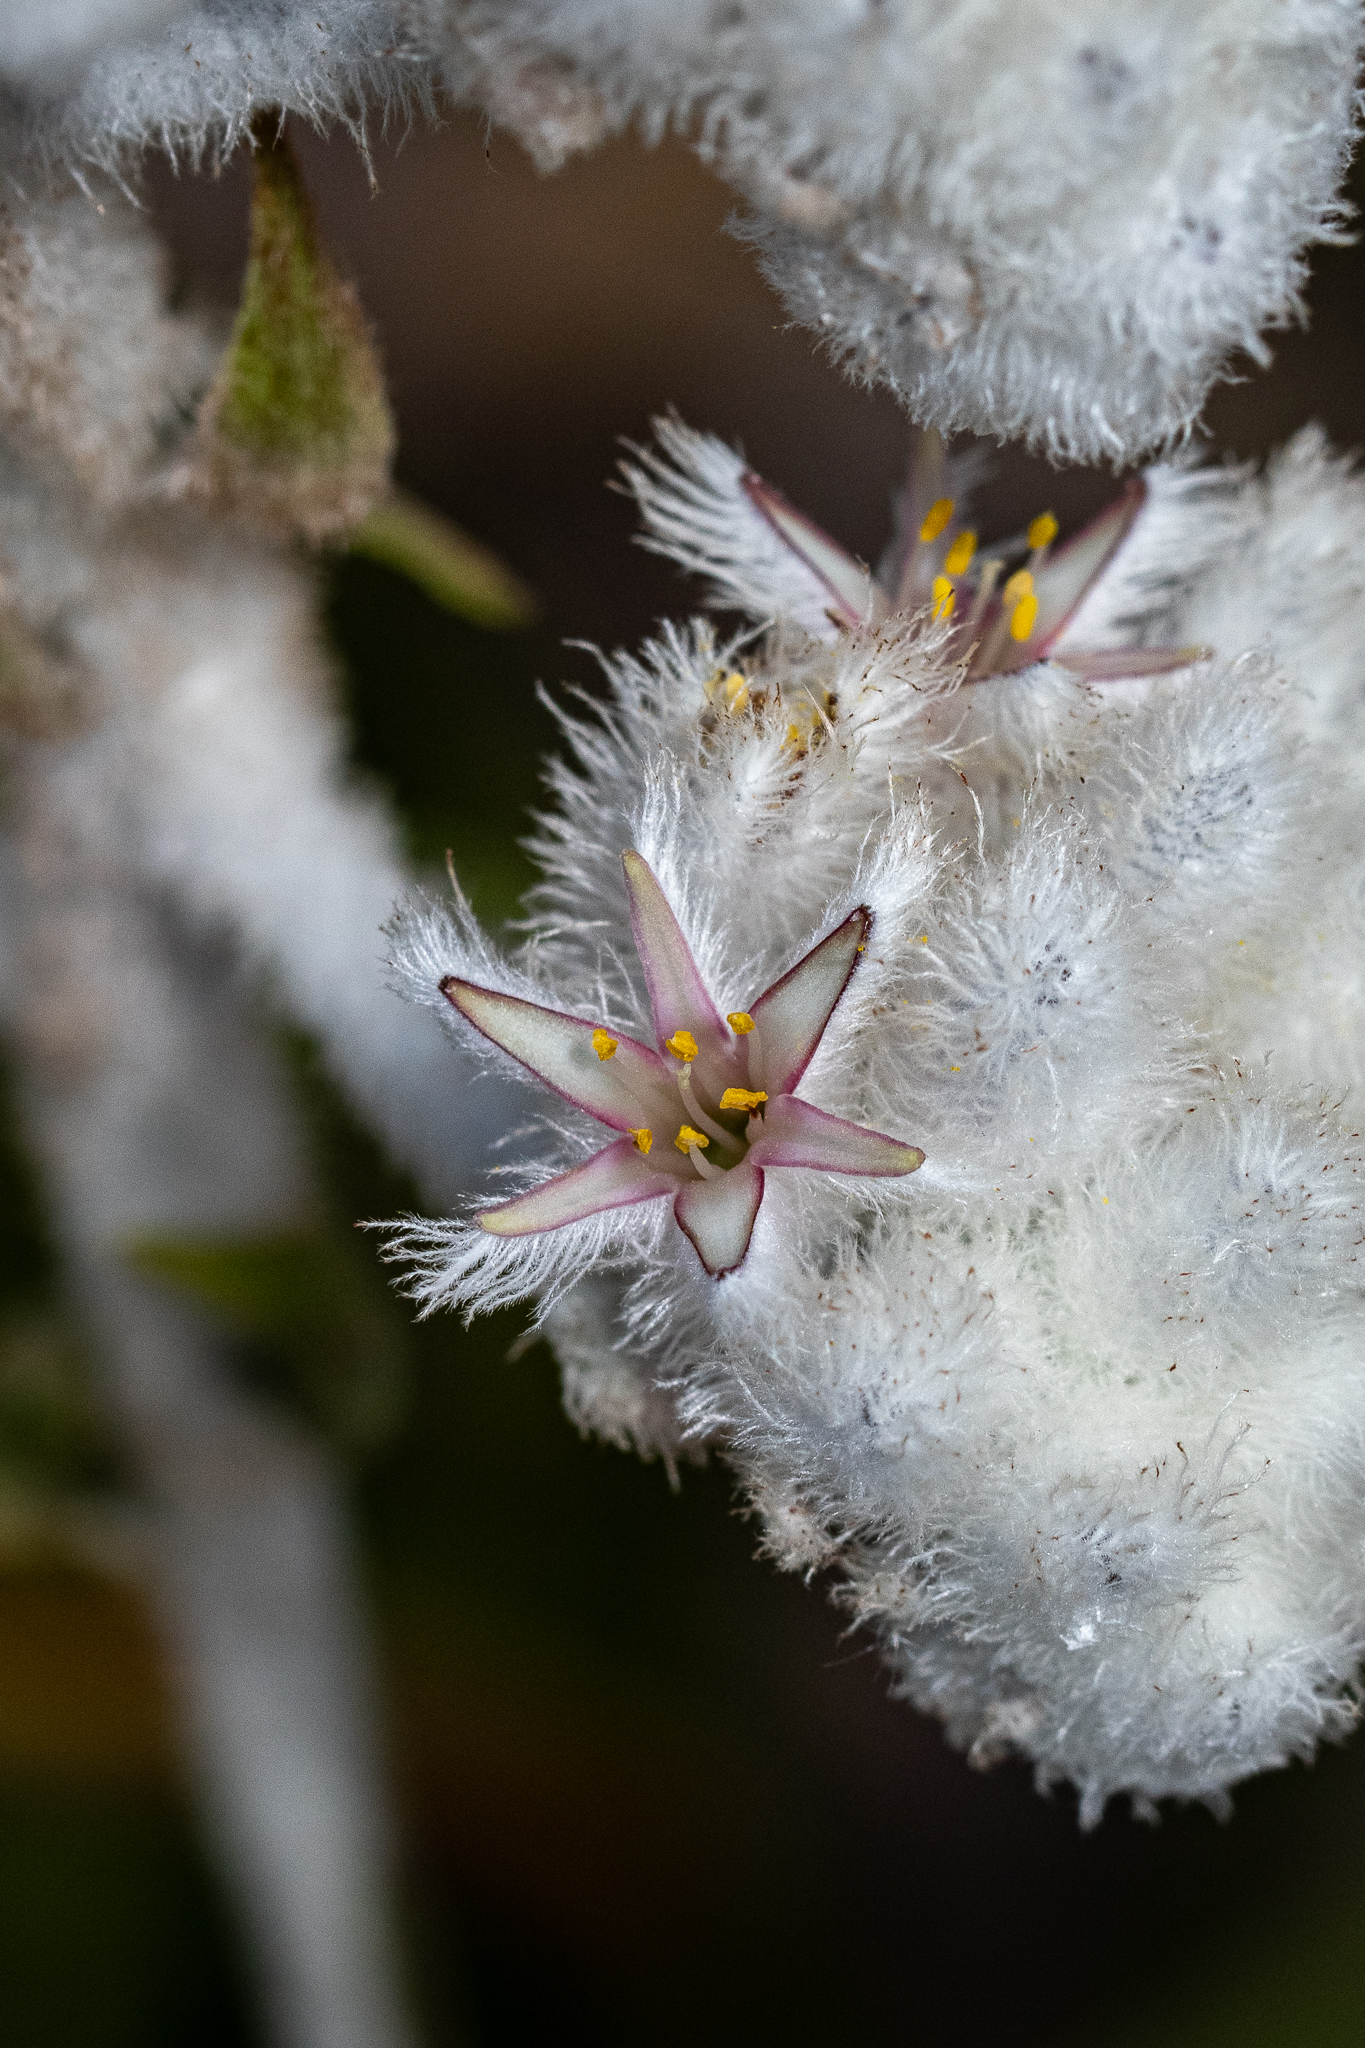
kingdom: Plantae
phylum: Tracheophyta
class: Liliopsida
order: Asparagales
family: Lanariaceae
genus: Lanaria
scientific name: Lanaria lanata
